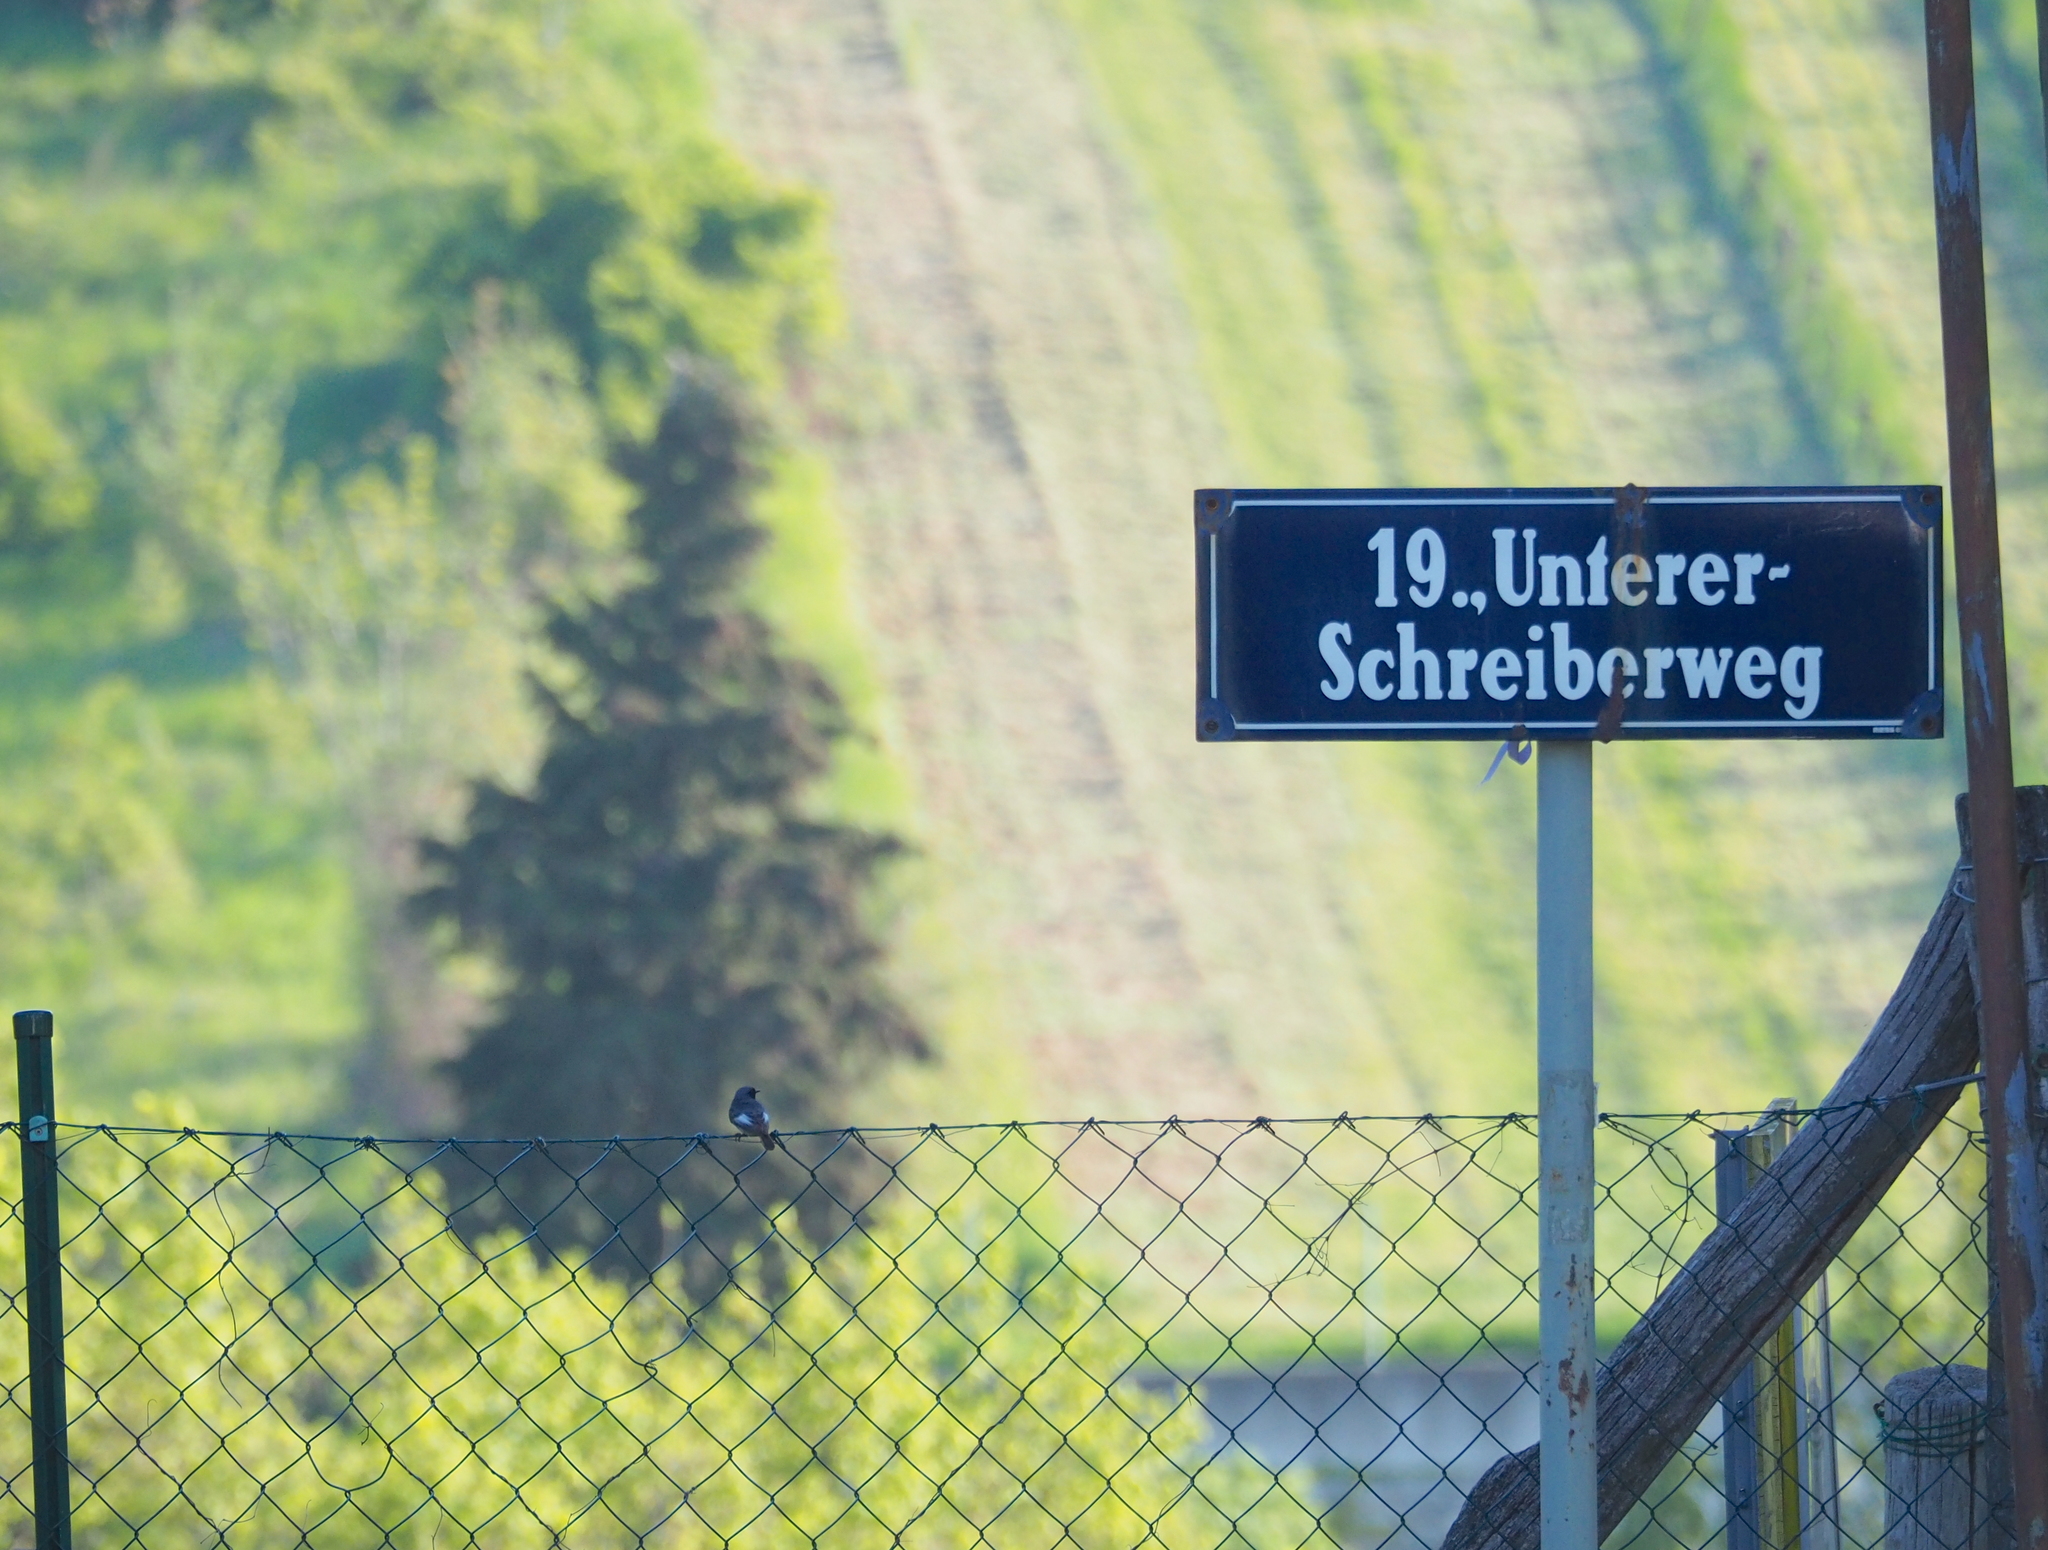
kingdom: Animalia
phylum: Chordata
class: Aves
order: Passeriformes
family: Muscicapidae
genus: Phoenicurus
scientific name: Phoenicurus ochruros
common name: Black redstart
